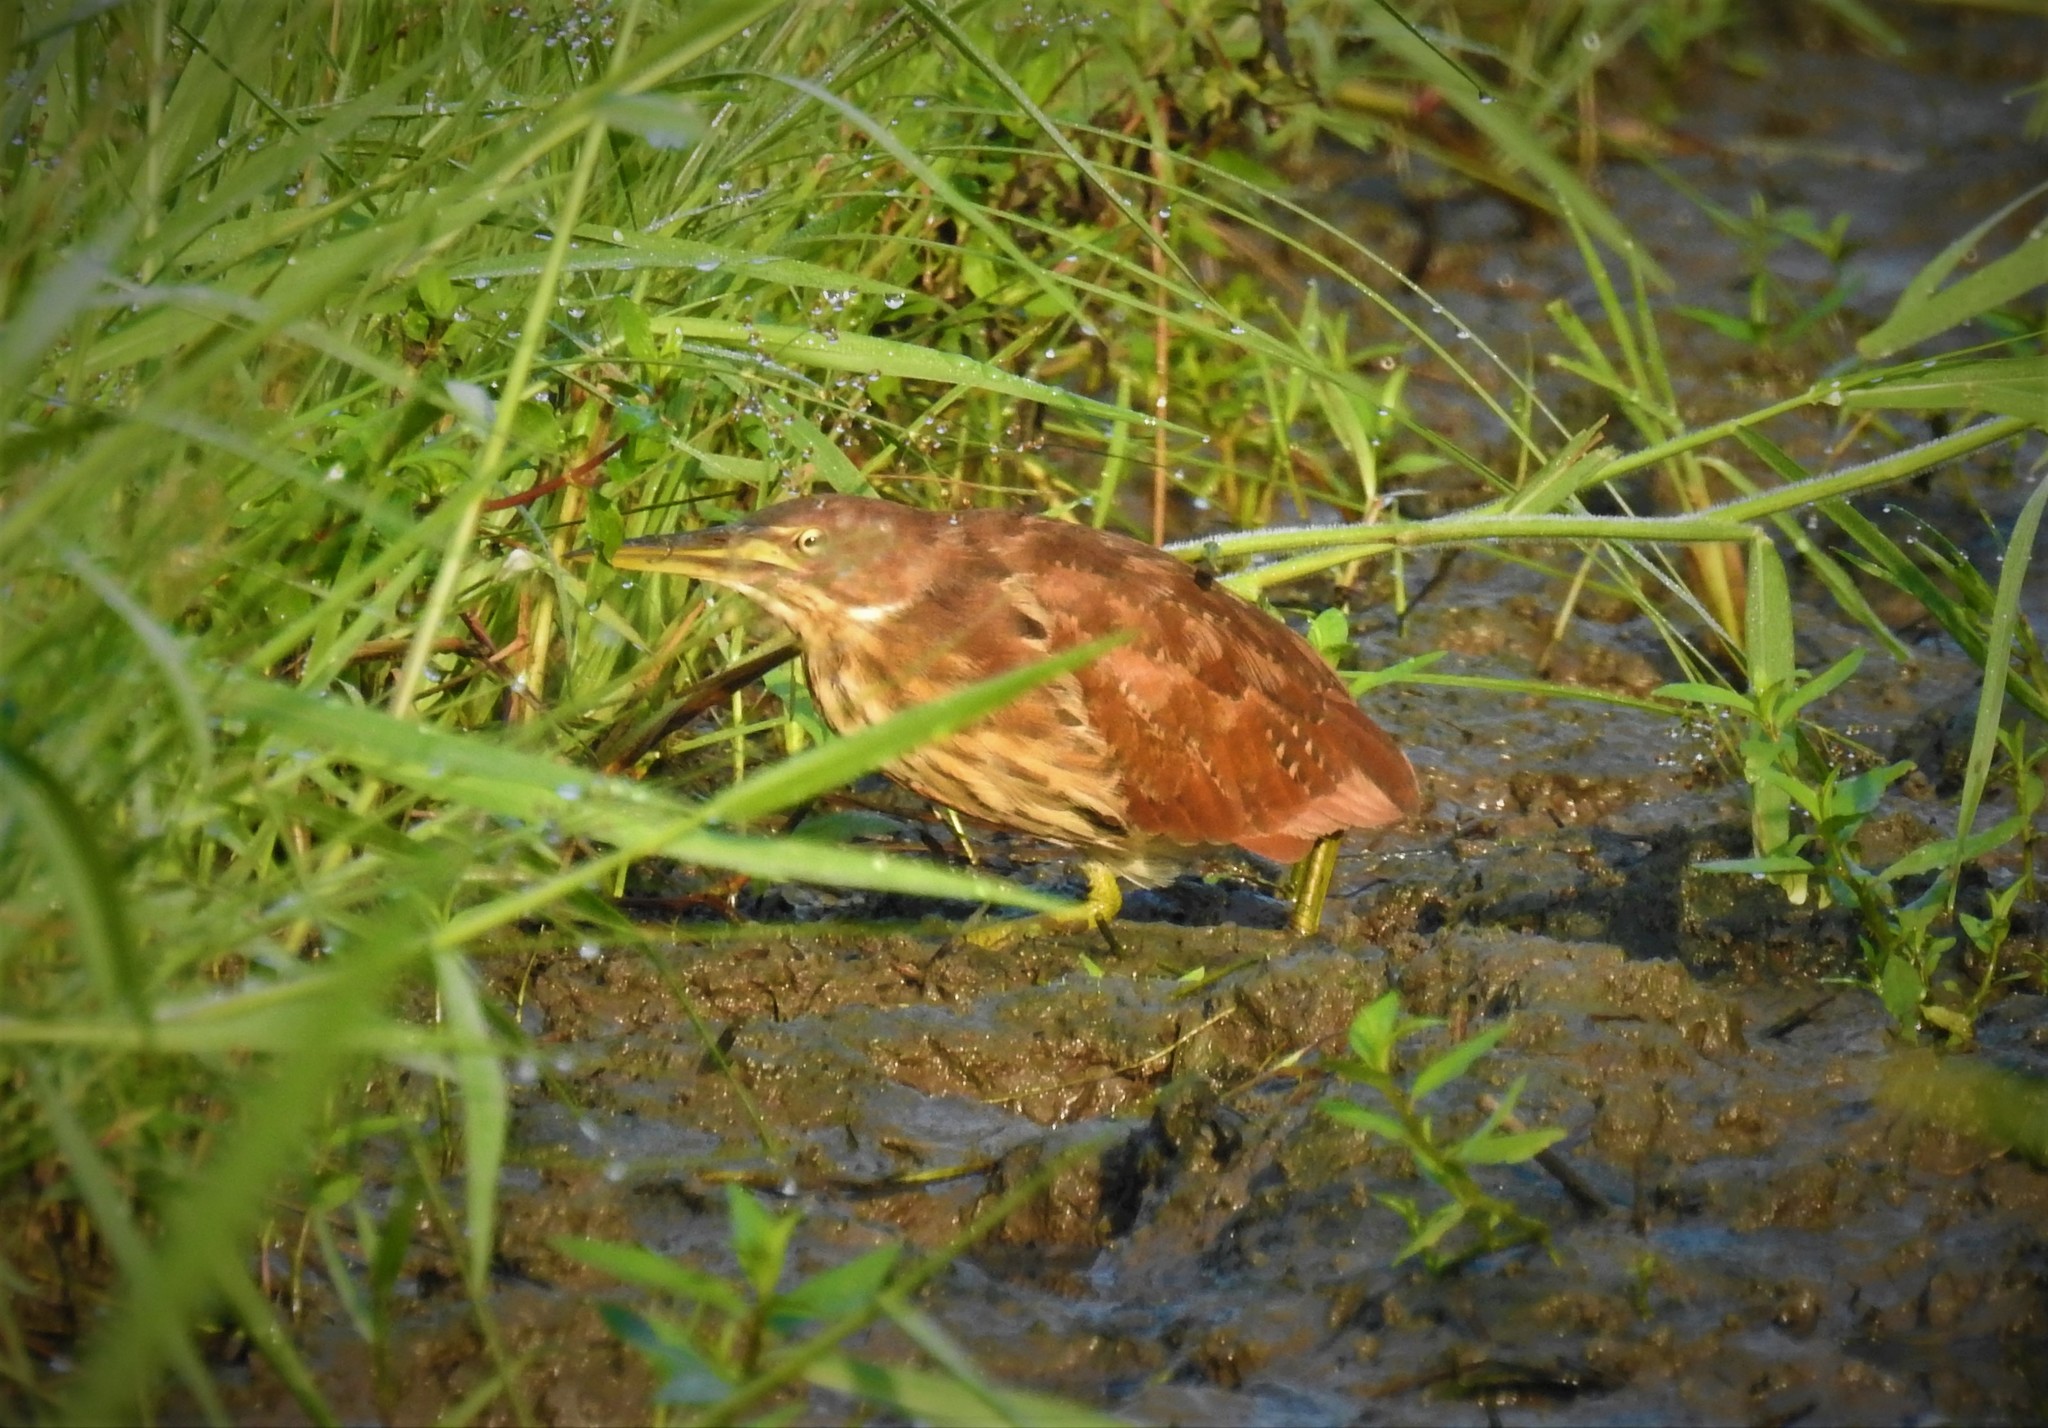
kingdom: Animalia
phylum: Chordata
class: Aves
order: Pelecaniformes
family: Ardeidae
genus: Ixobrychus
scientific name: Ixobrychus cinnamomeus
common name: Cinnamon bittern
